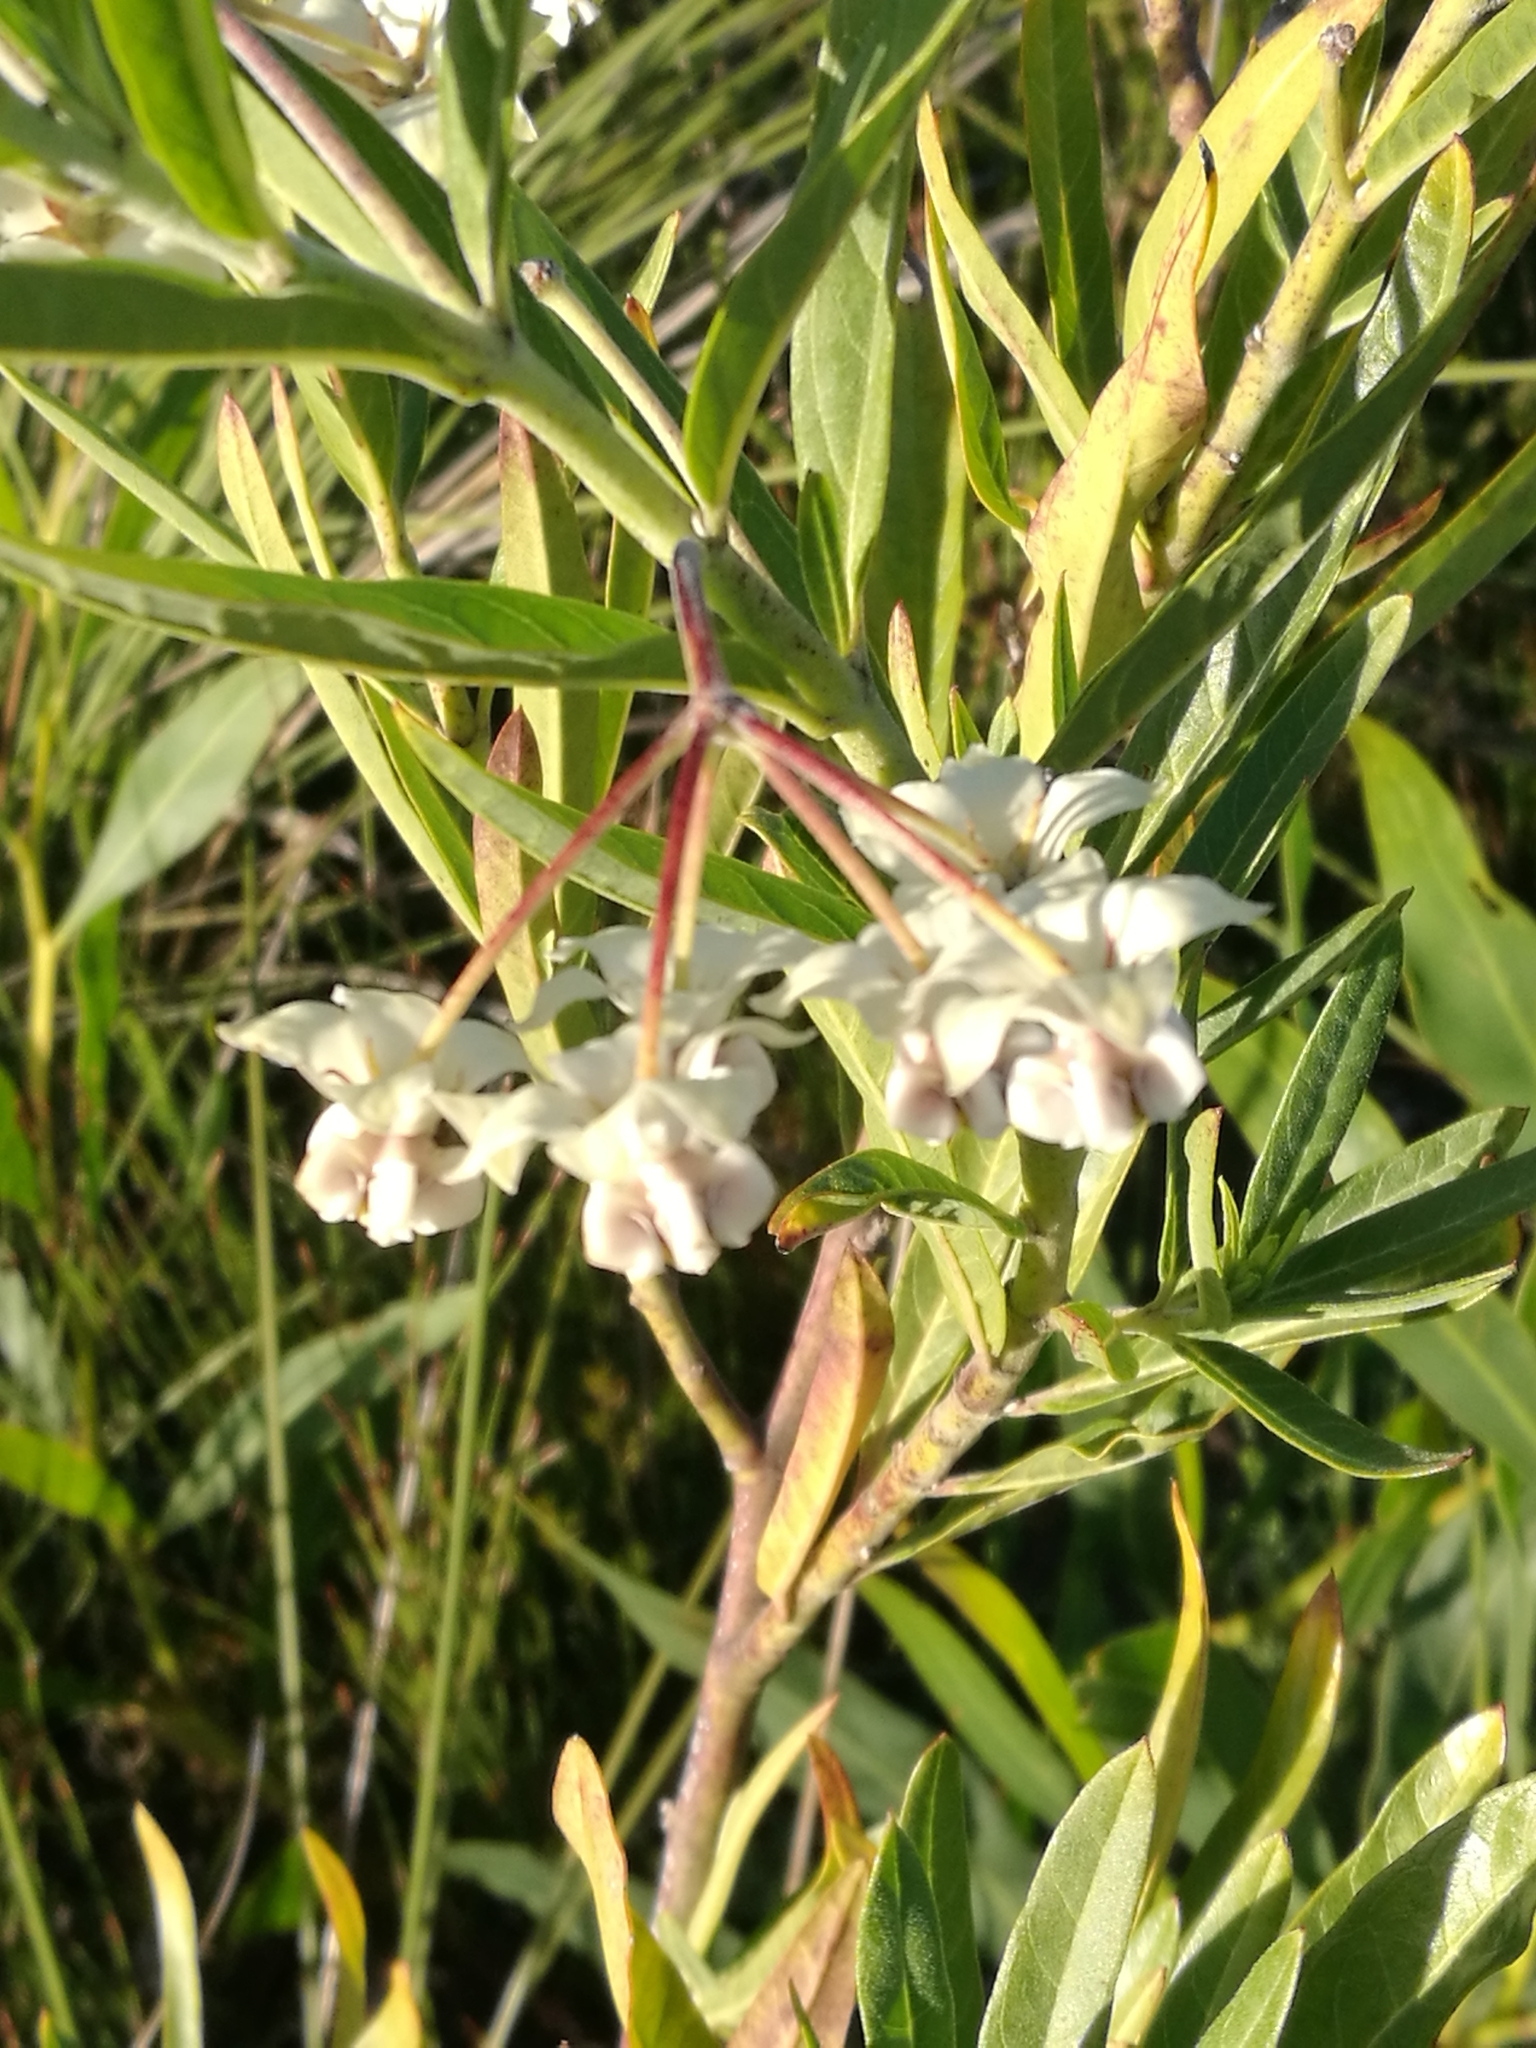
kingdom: Plantae
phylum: Tracheophyta
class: Magnoliopsida
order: Gentianales
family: Apocynaceae
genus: Gomphocarpus
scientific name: Gomphocarpus physocarpus
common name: Balloon cotton bush
